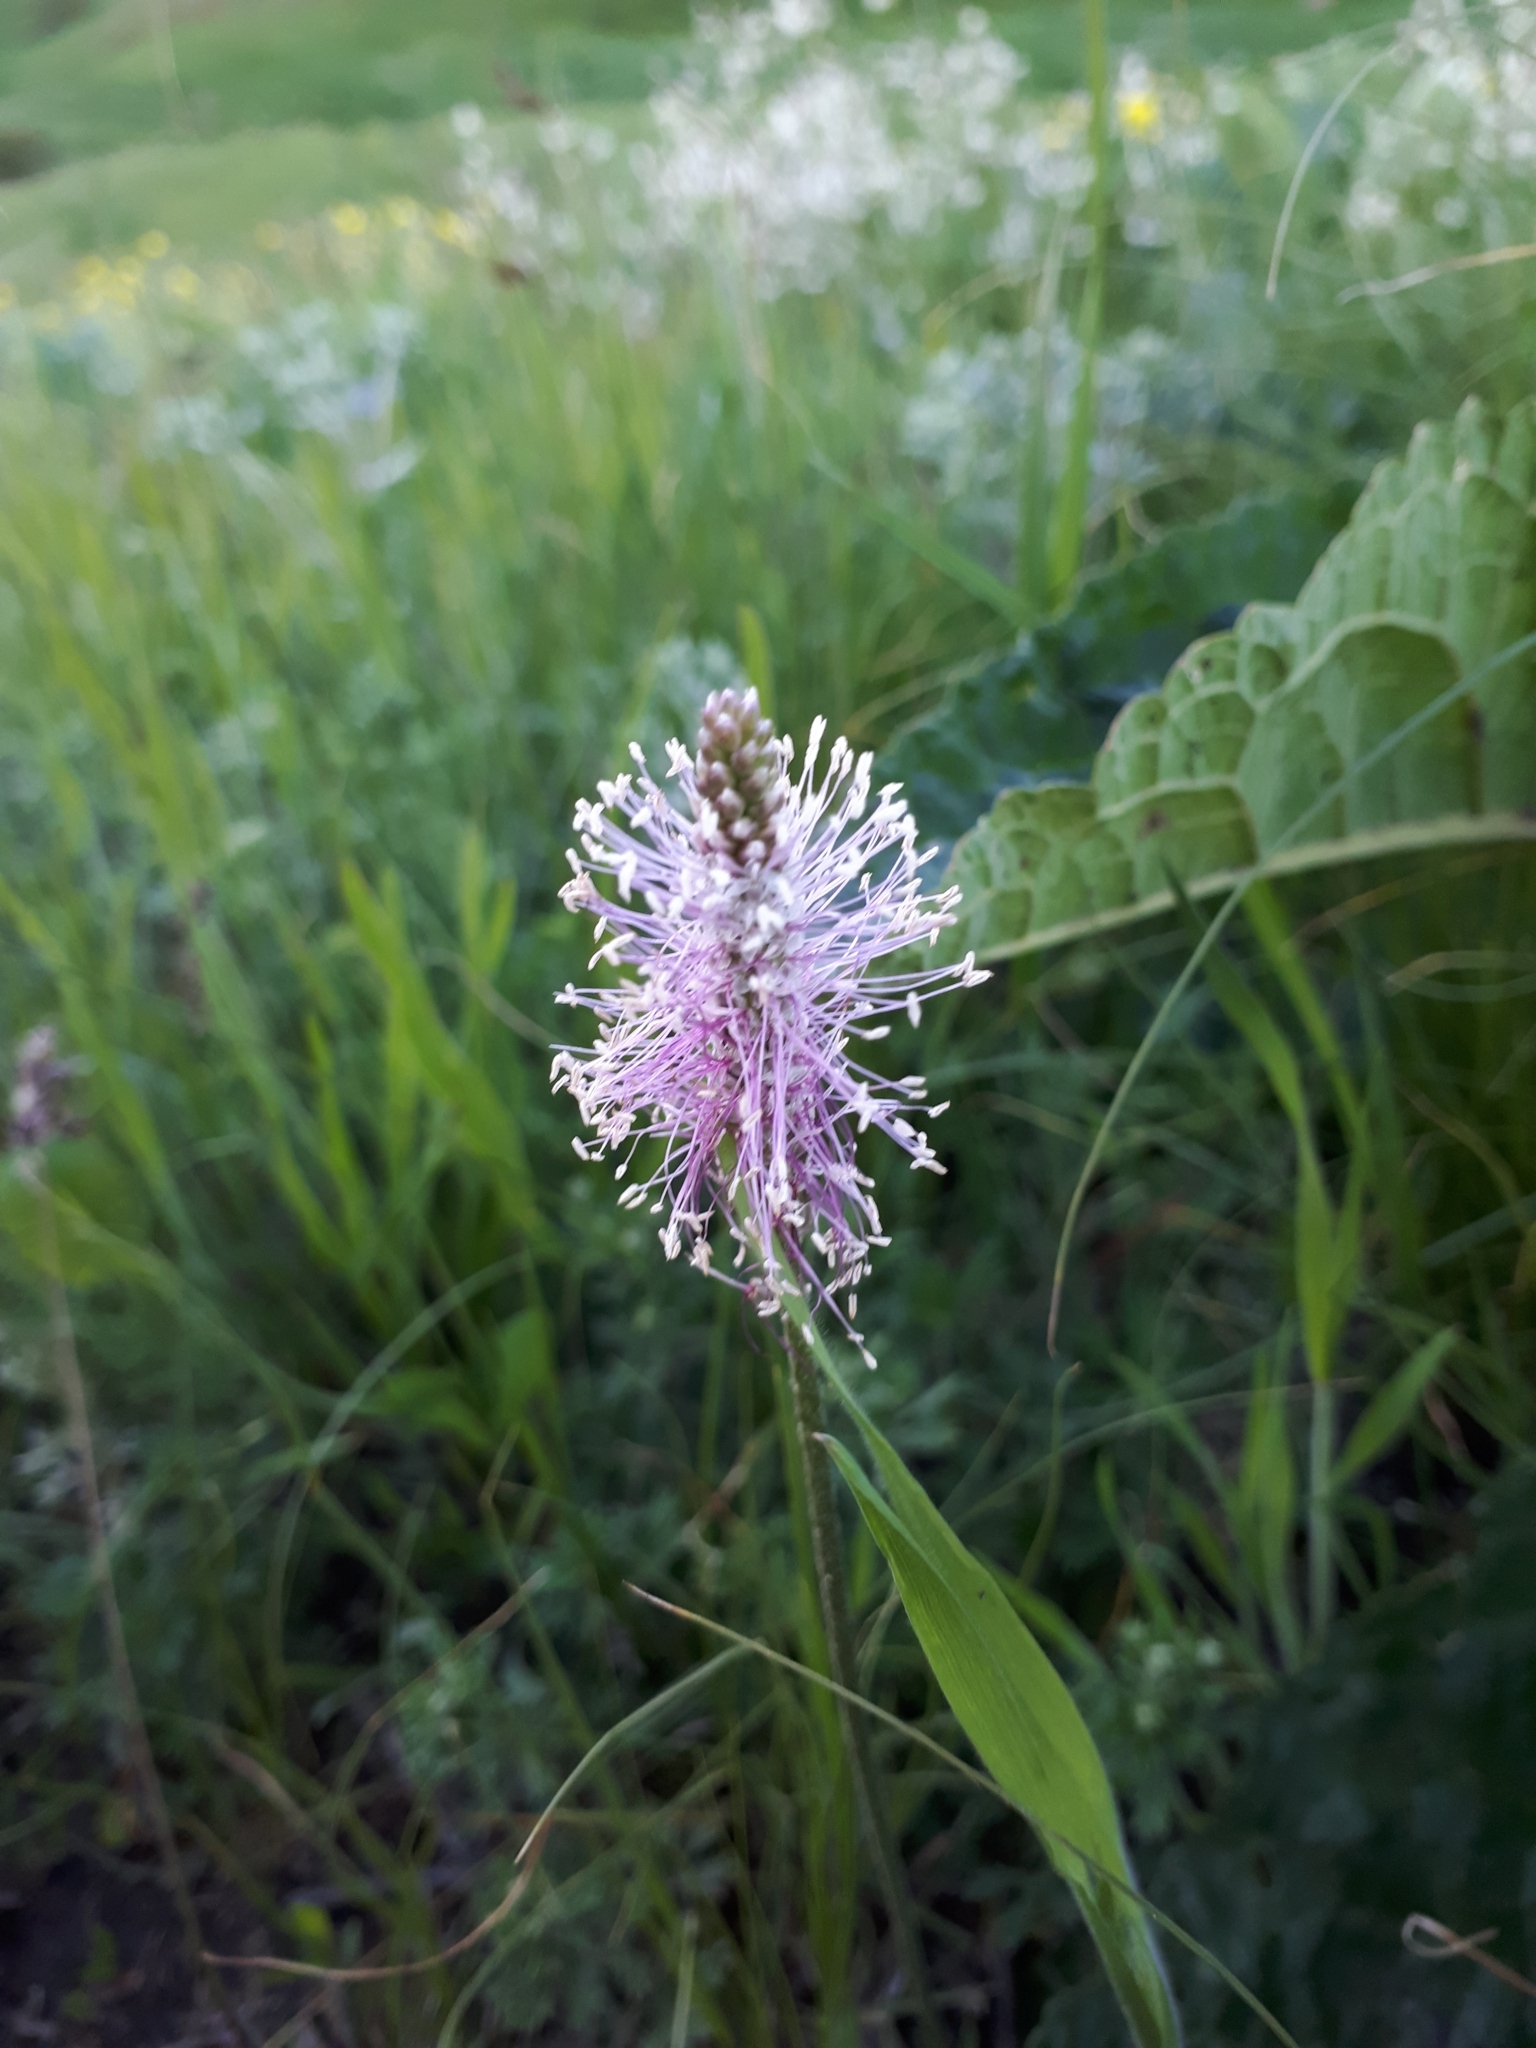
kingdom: Plantae
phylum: Tracheophyta
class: Magnoliopsida
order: Lamiales
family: Plantaginaceae
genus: Plantago
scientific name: Plantago media
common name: Hoary plantain
